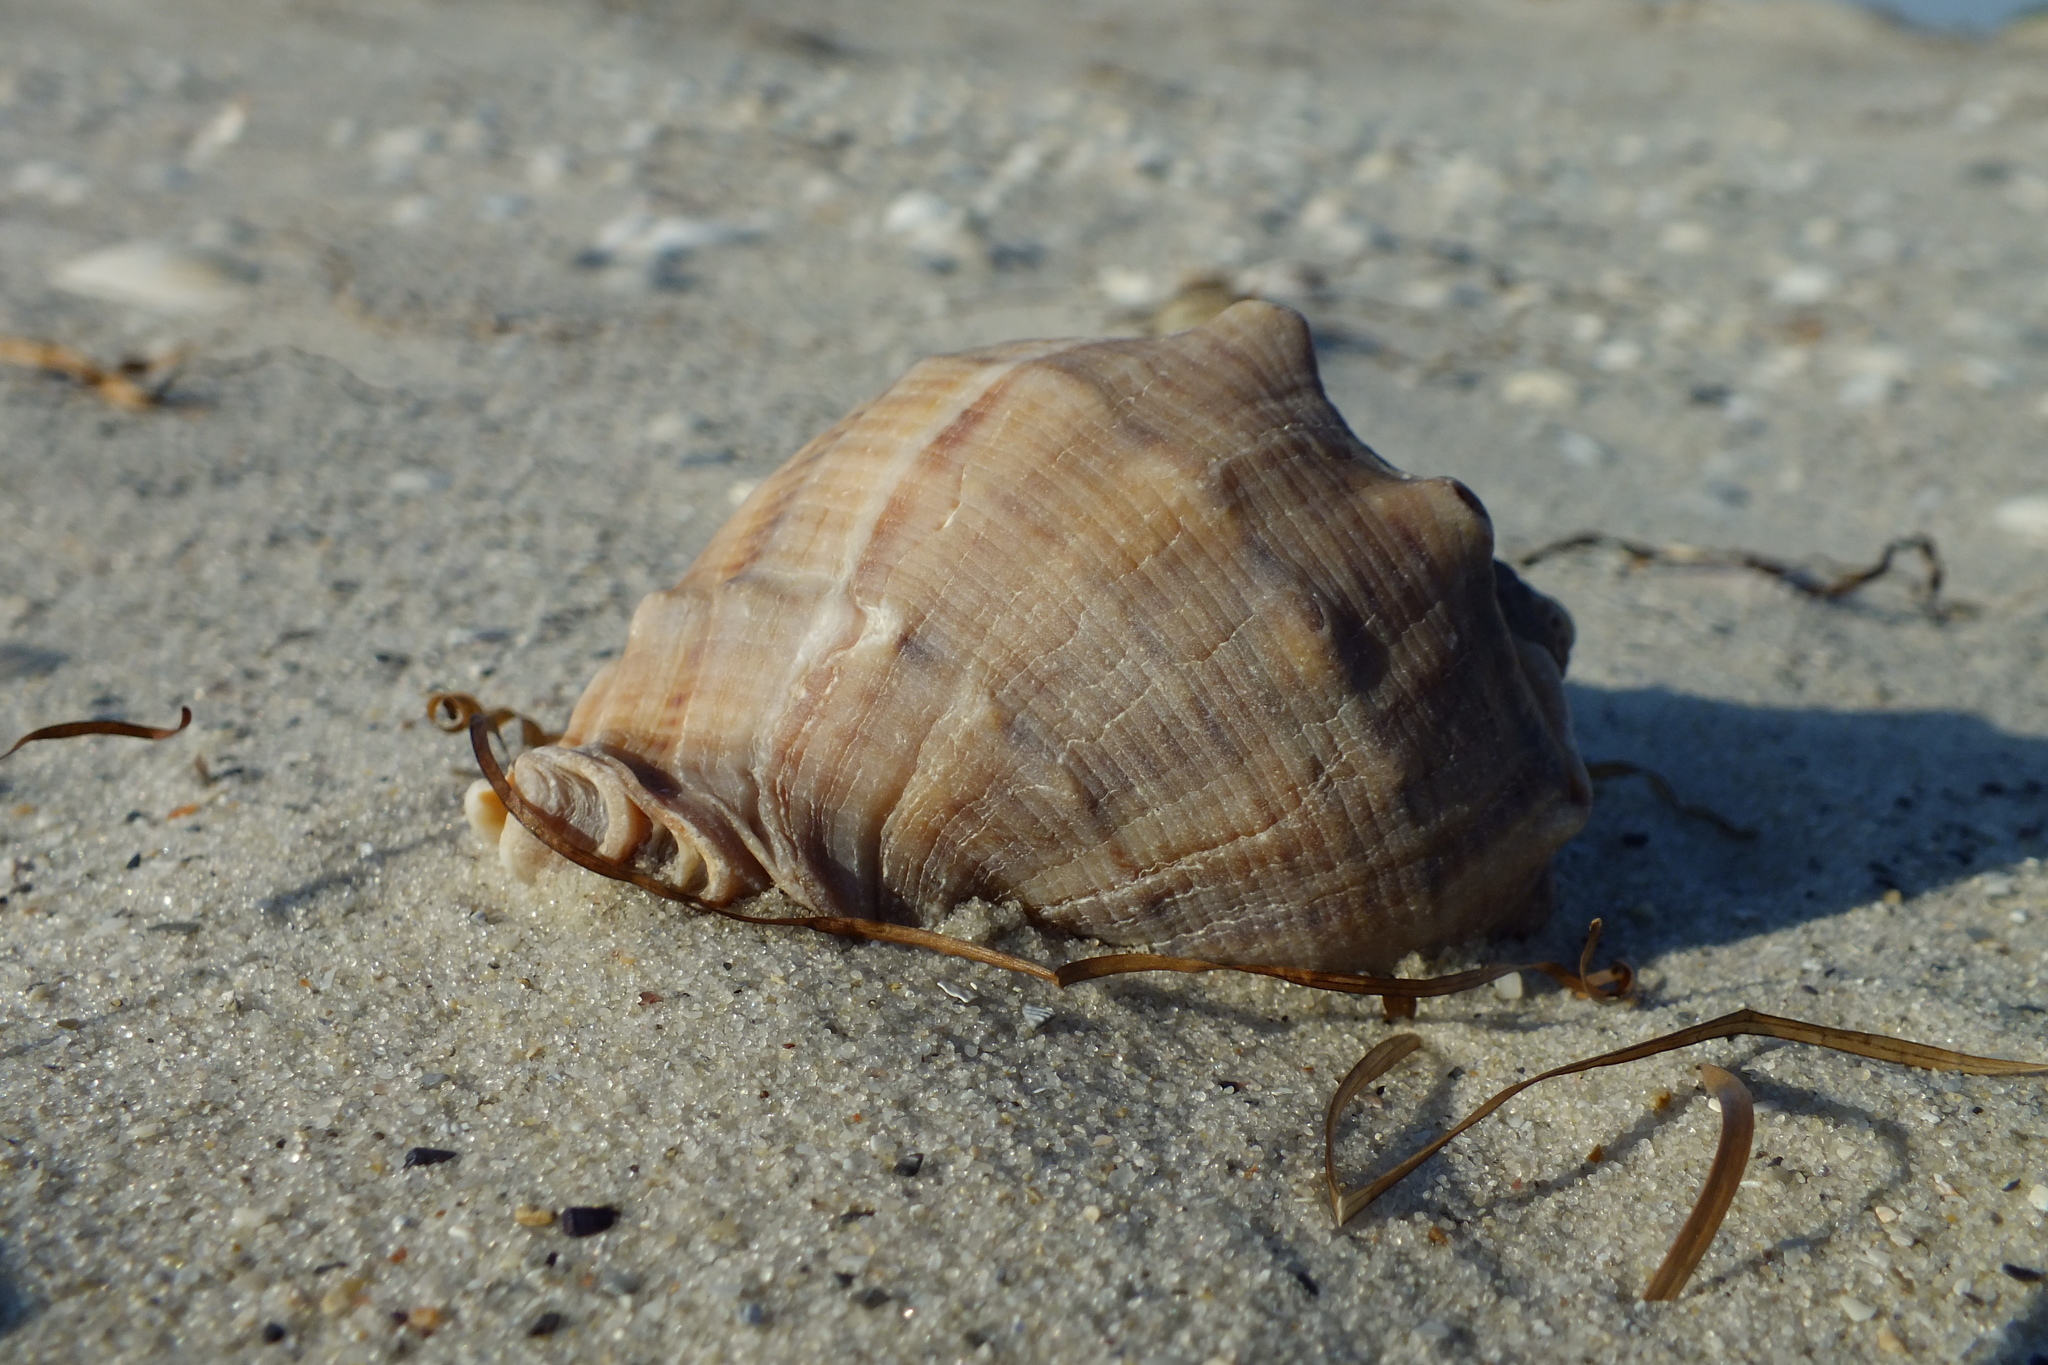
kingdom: Animalia
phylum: Mollusca
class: Gastropoda
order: Neogastropoda
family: Muricidae
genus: Rapana
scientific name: Rapana venosa
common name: Veined rapa whelk
